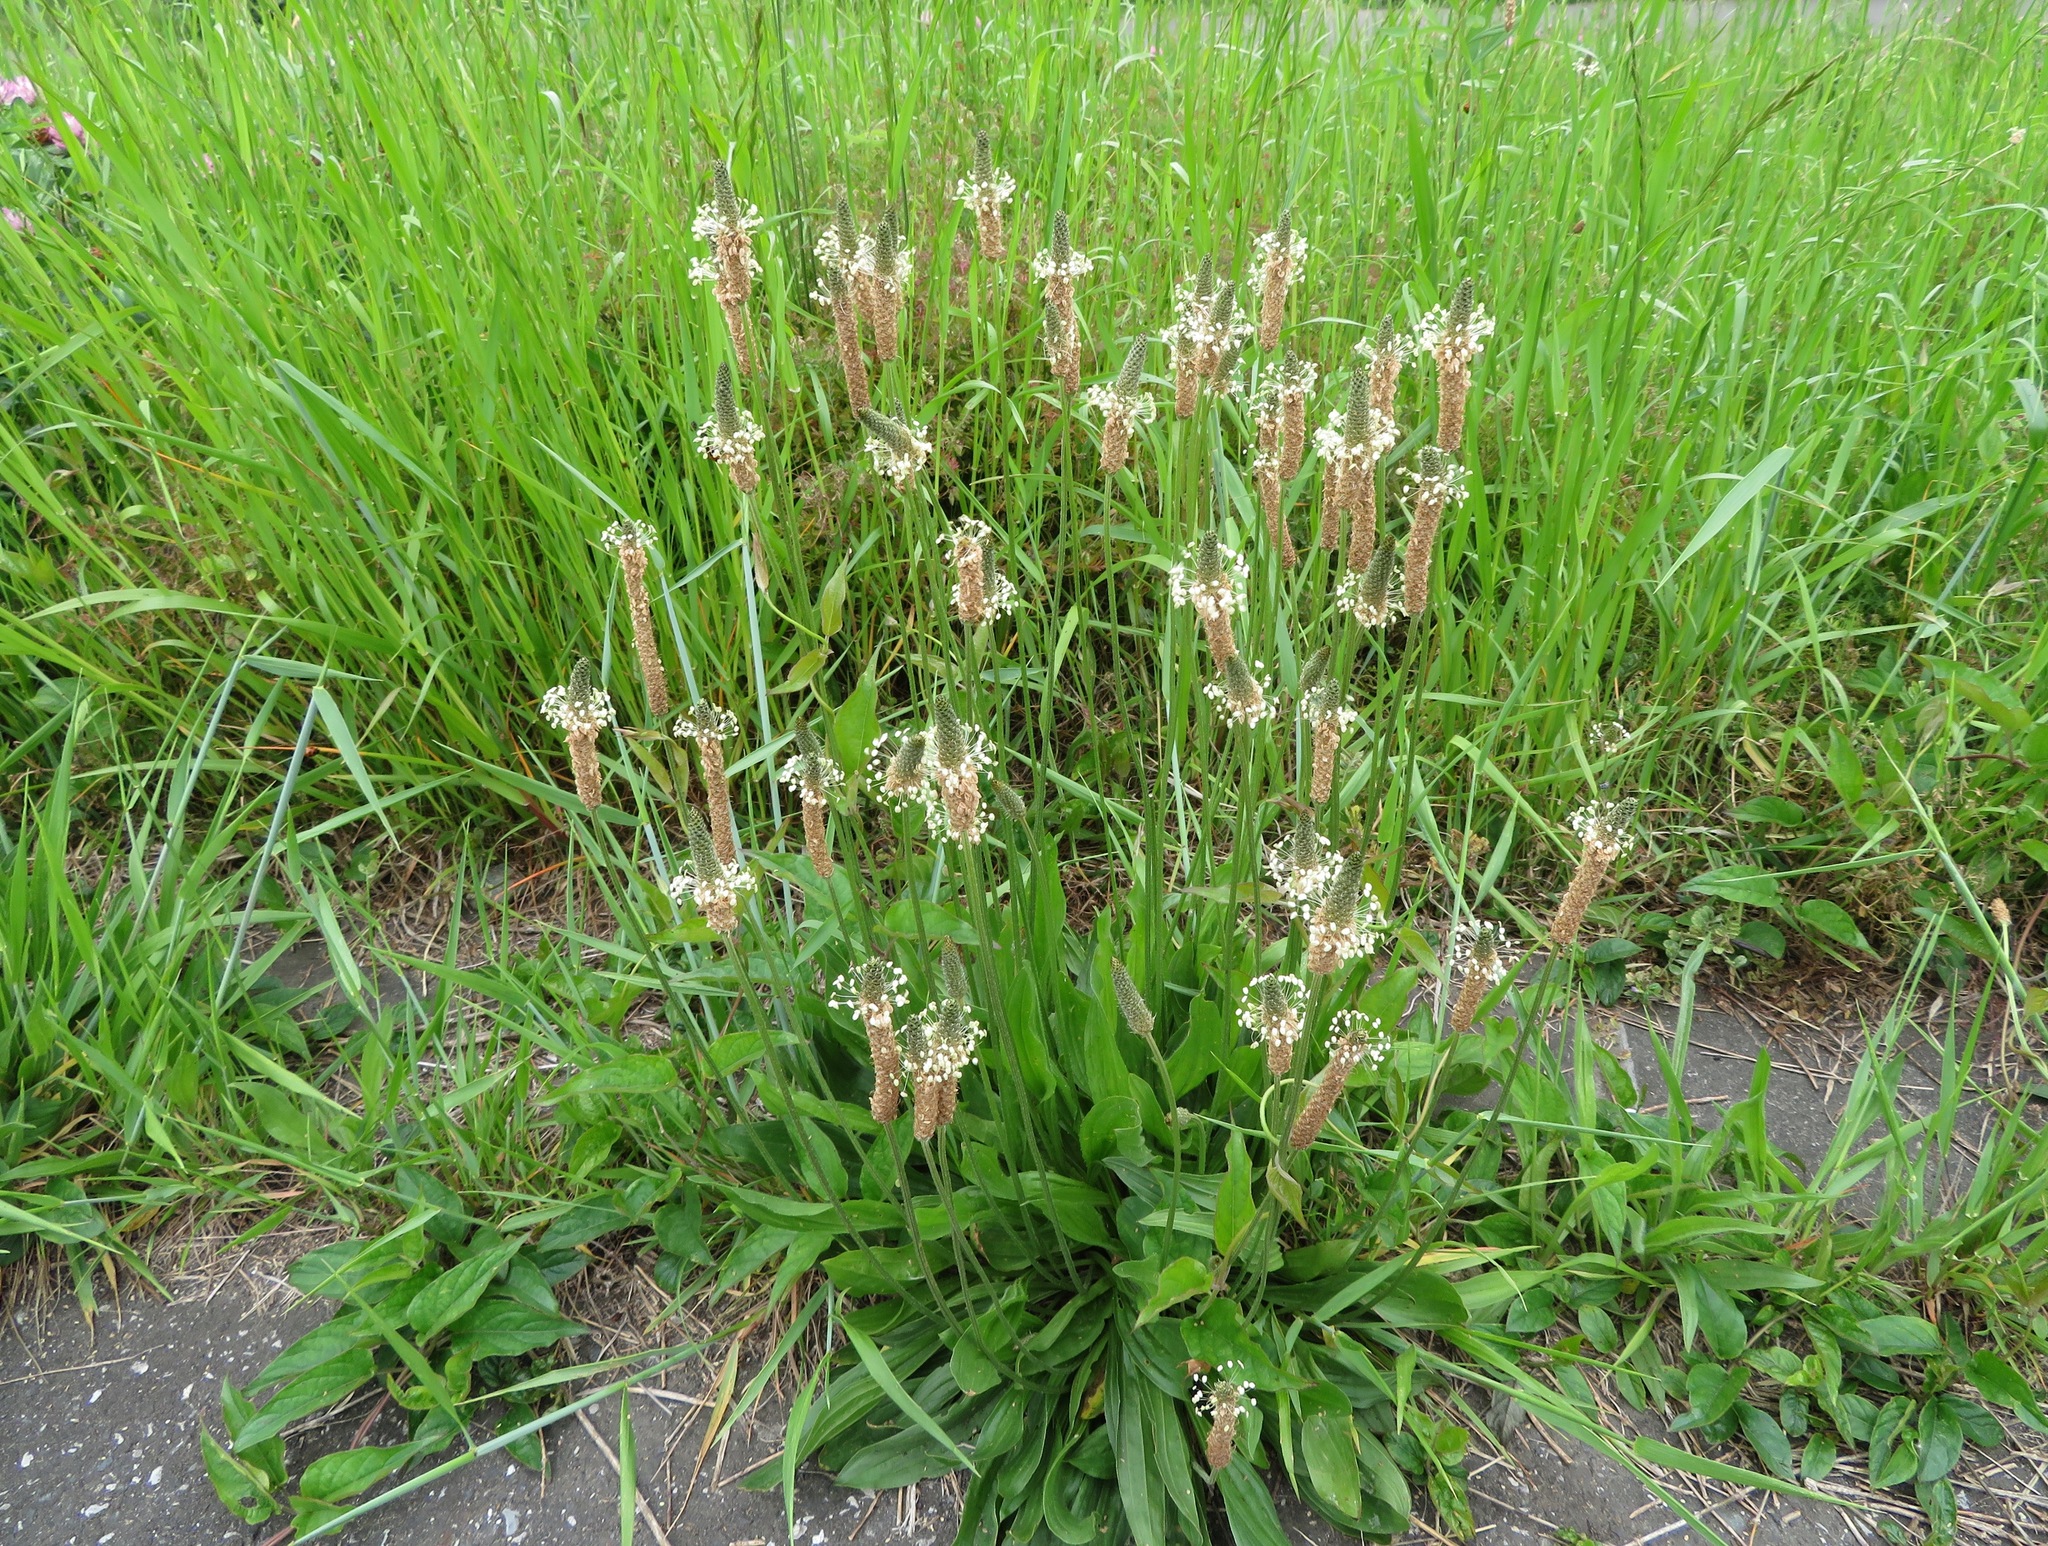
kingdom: Plantae
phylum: Tracheophyta
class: Magnoliopsida
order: Lamiales
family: Plantaginaceae
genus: Plantago
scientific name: Plantago lanceolata
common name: Ribwort plantain
